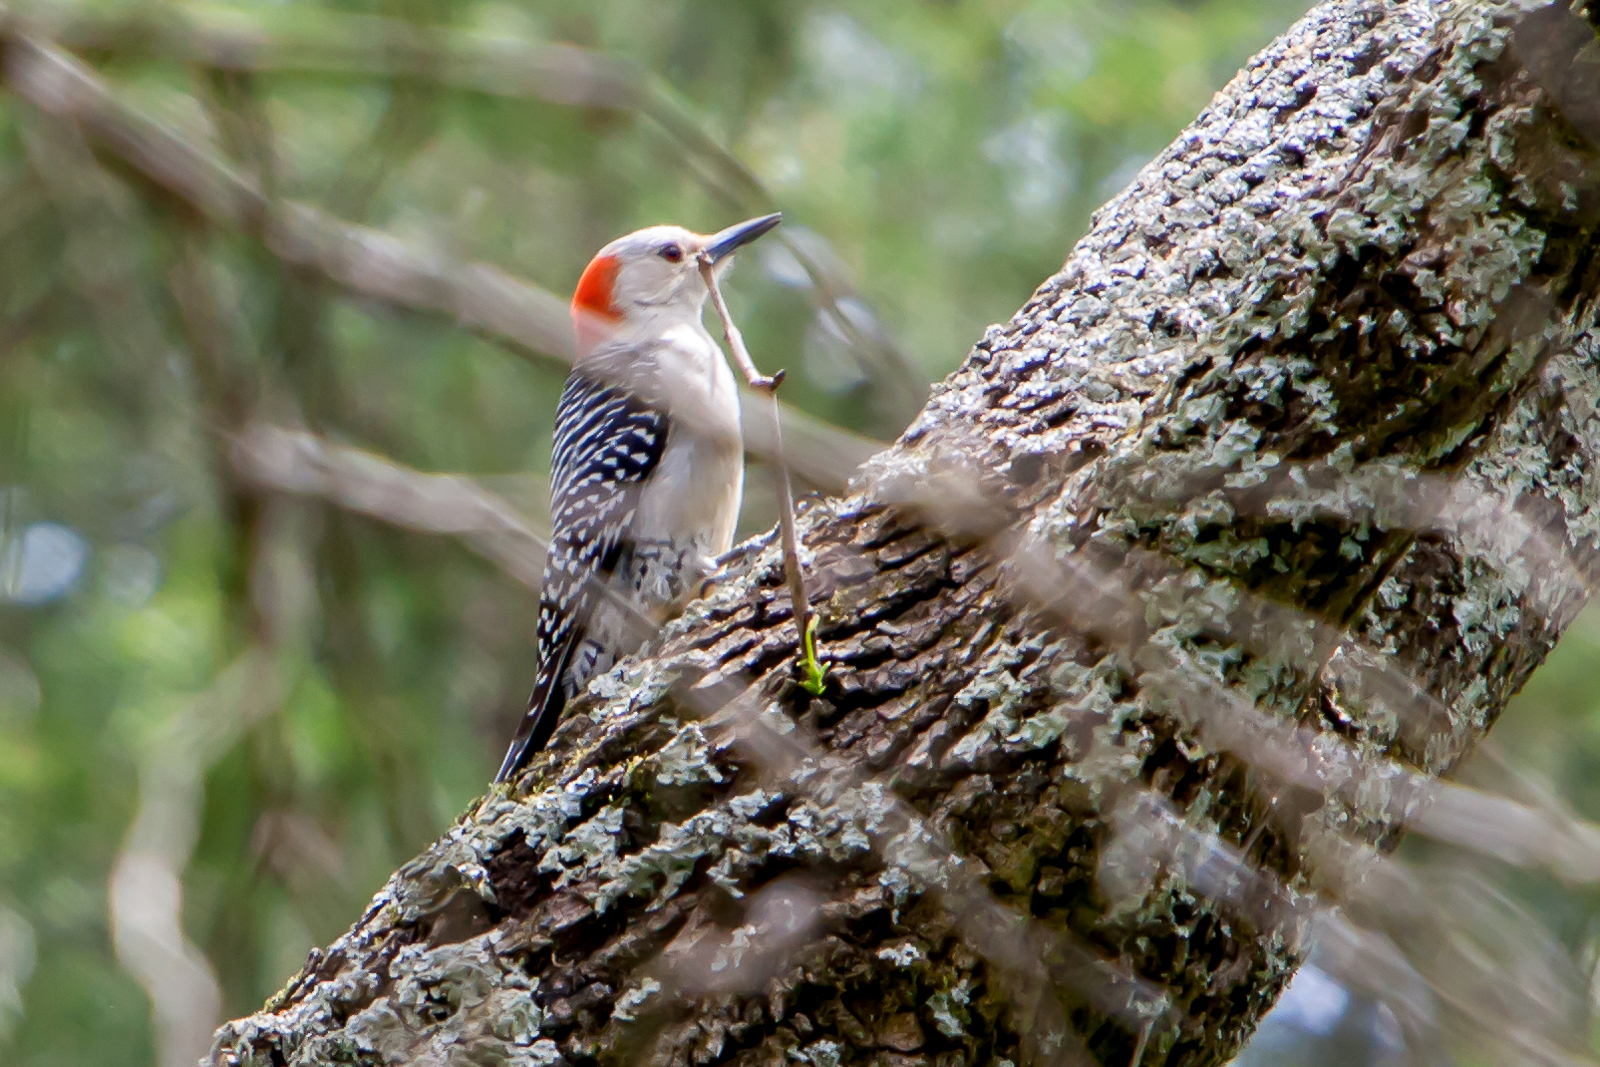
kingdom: Animalia
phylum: Chordata
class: Aves
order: Piciformes
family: Picidae
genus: Melanerpes
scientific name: Melanerpes carolinus
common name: Red-bellied woodpecker
